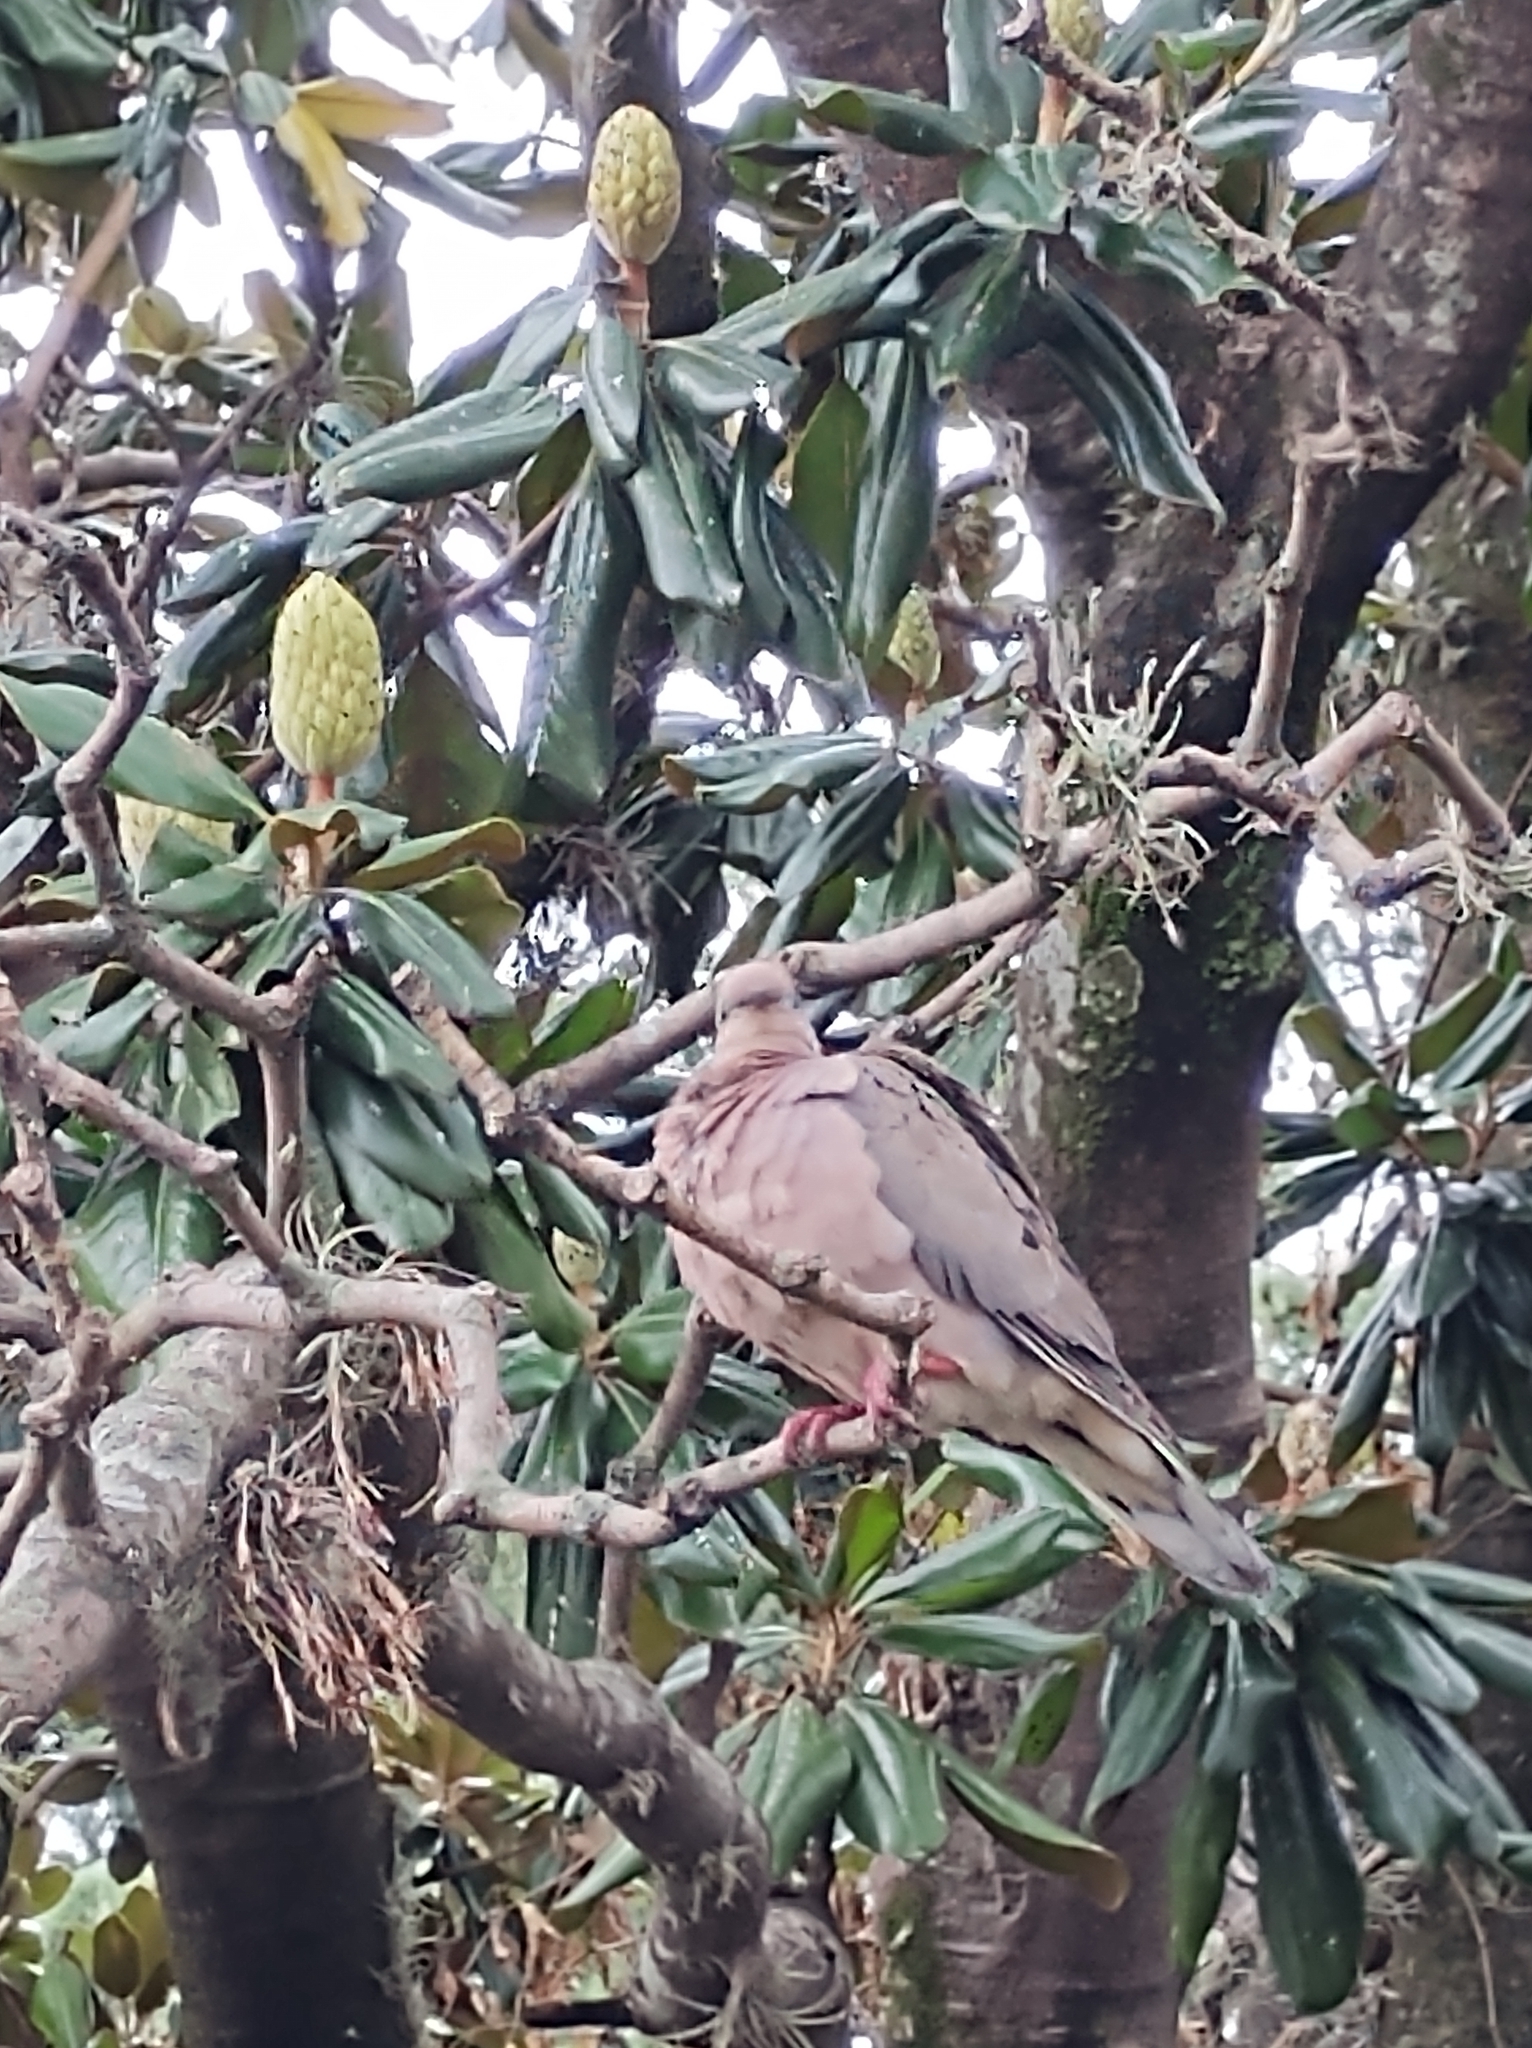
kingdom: Animalia
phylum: Chordata
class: Aves
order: Columbiformes
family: Columbidae
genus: Zenaida
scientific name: Zenaida auriculata
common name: Eared dove
